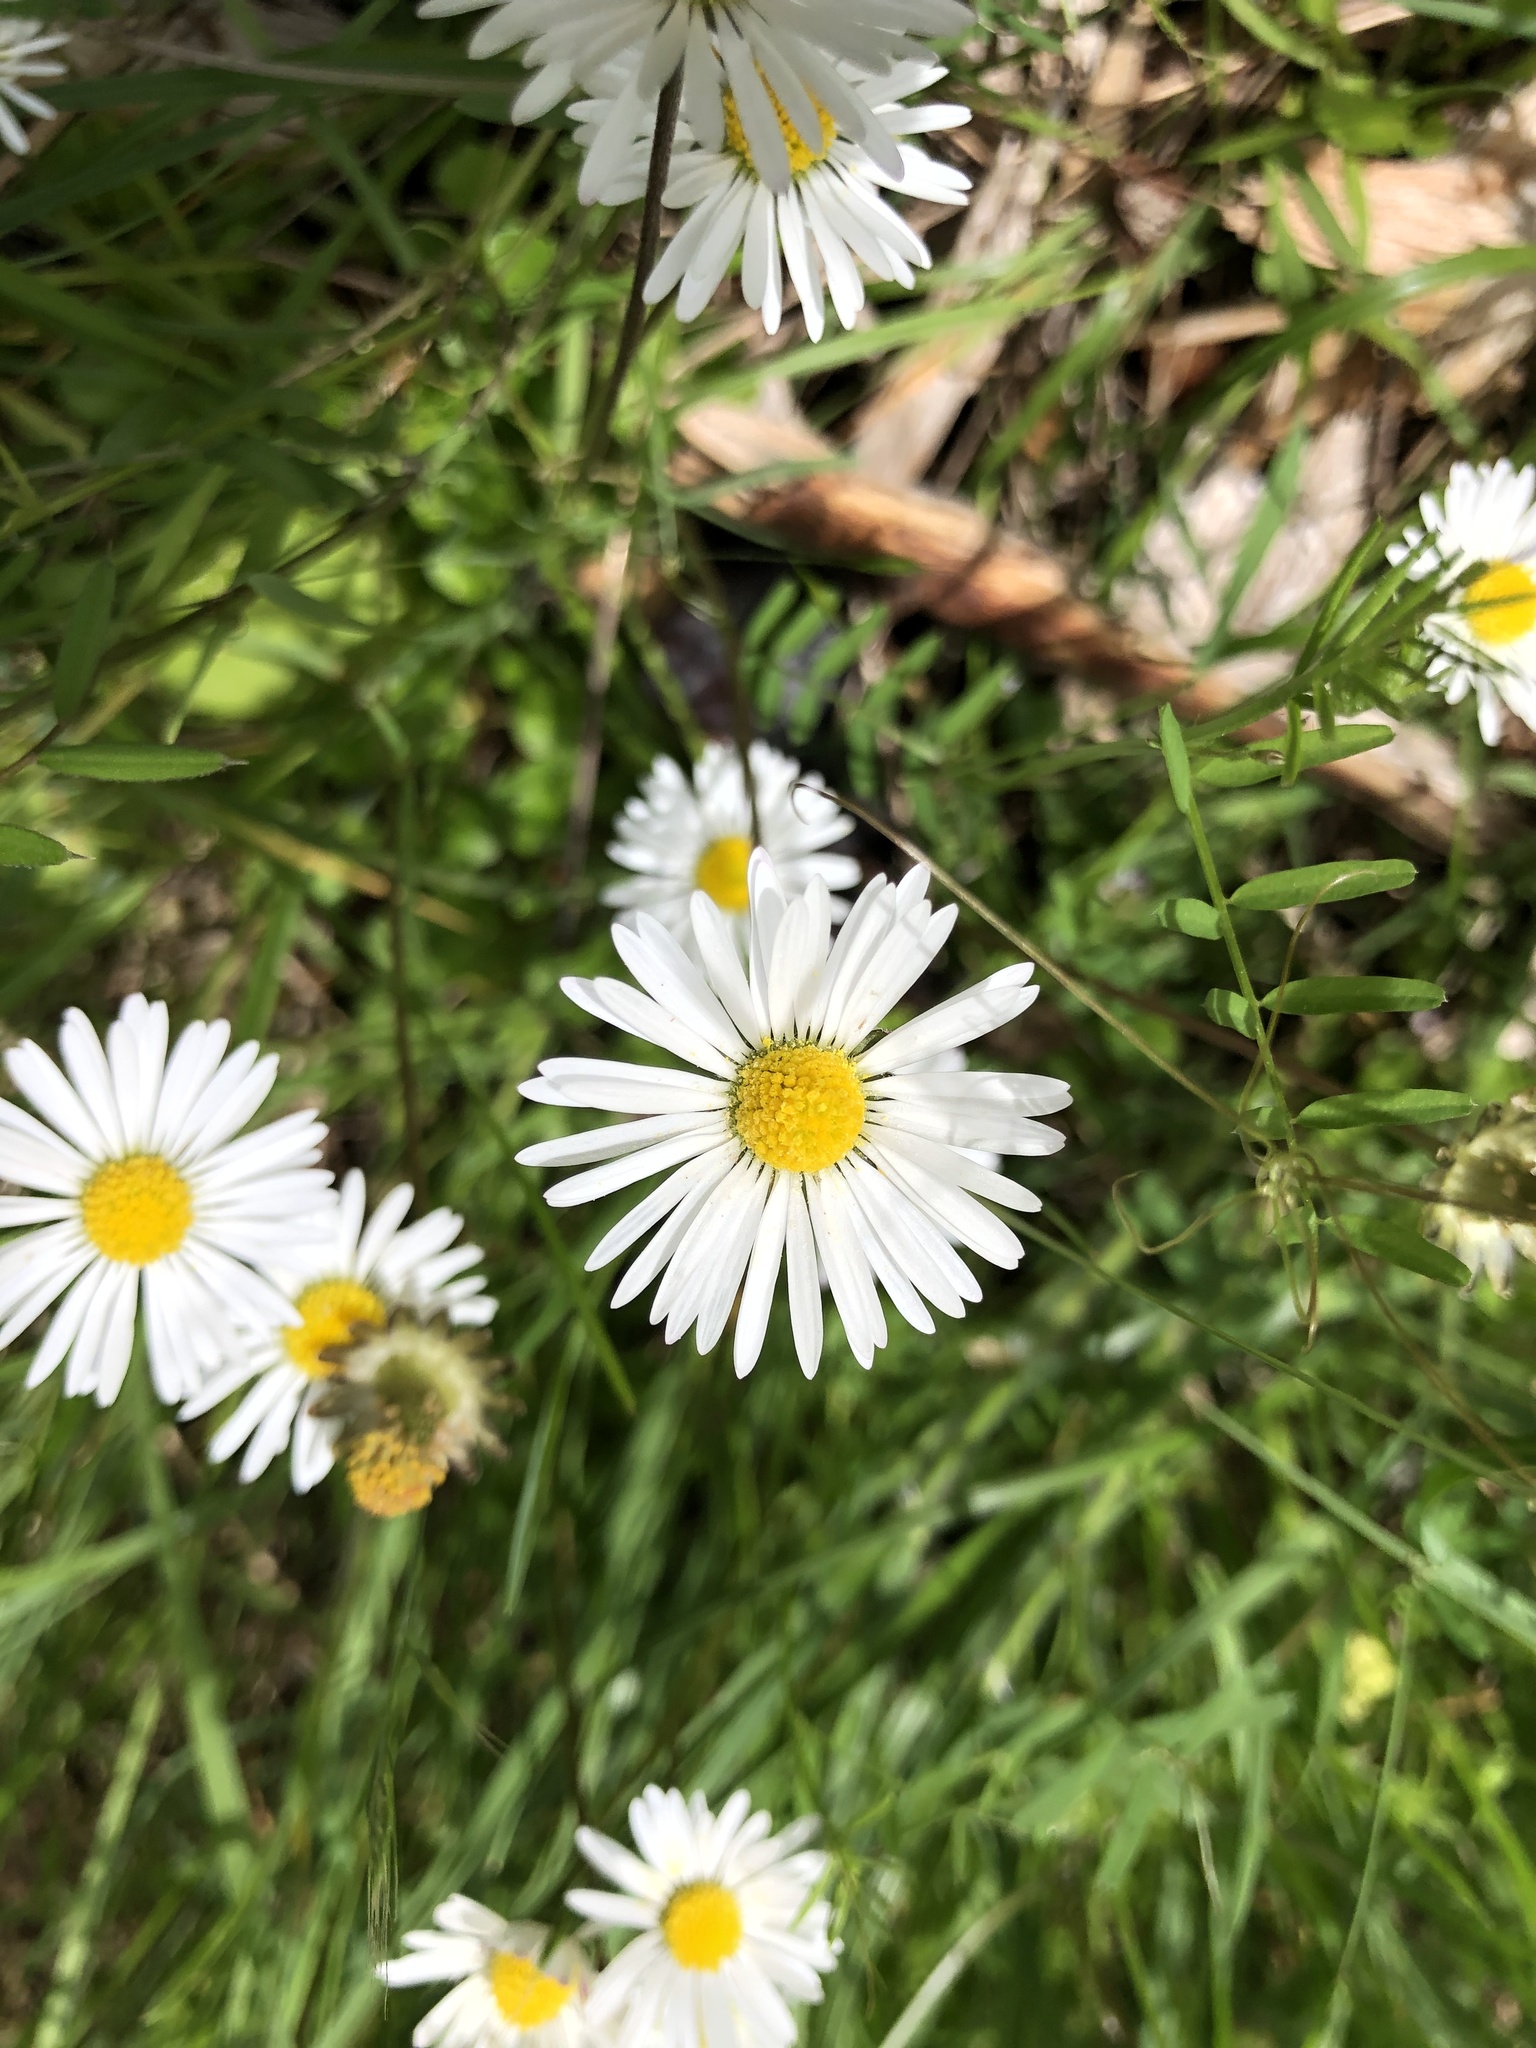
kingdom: Plantae
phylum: Tracheophyta
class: Magnoliopsida
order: Asterales
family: Asteraceae
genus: Bellis
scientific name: Bellis perennis
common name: Lawndaisy
